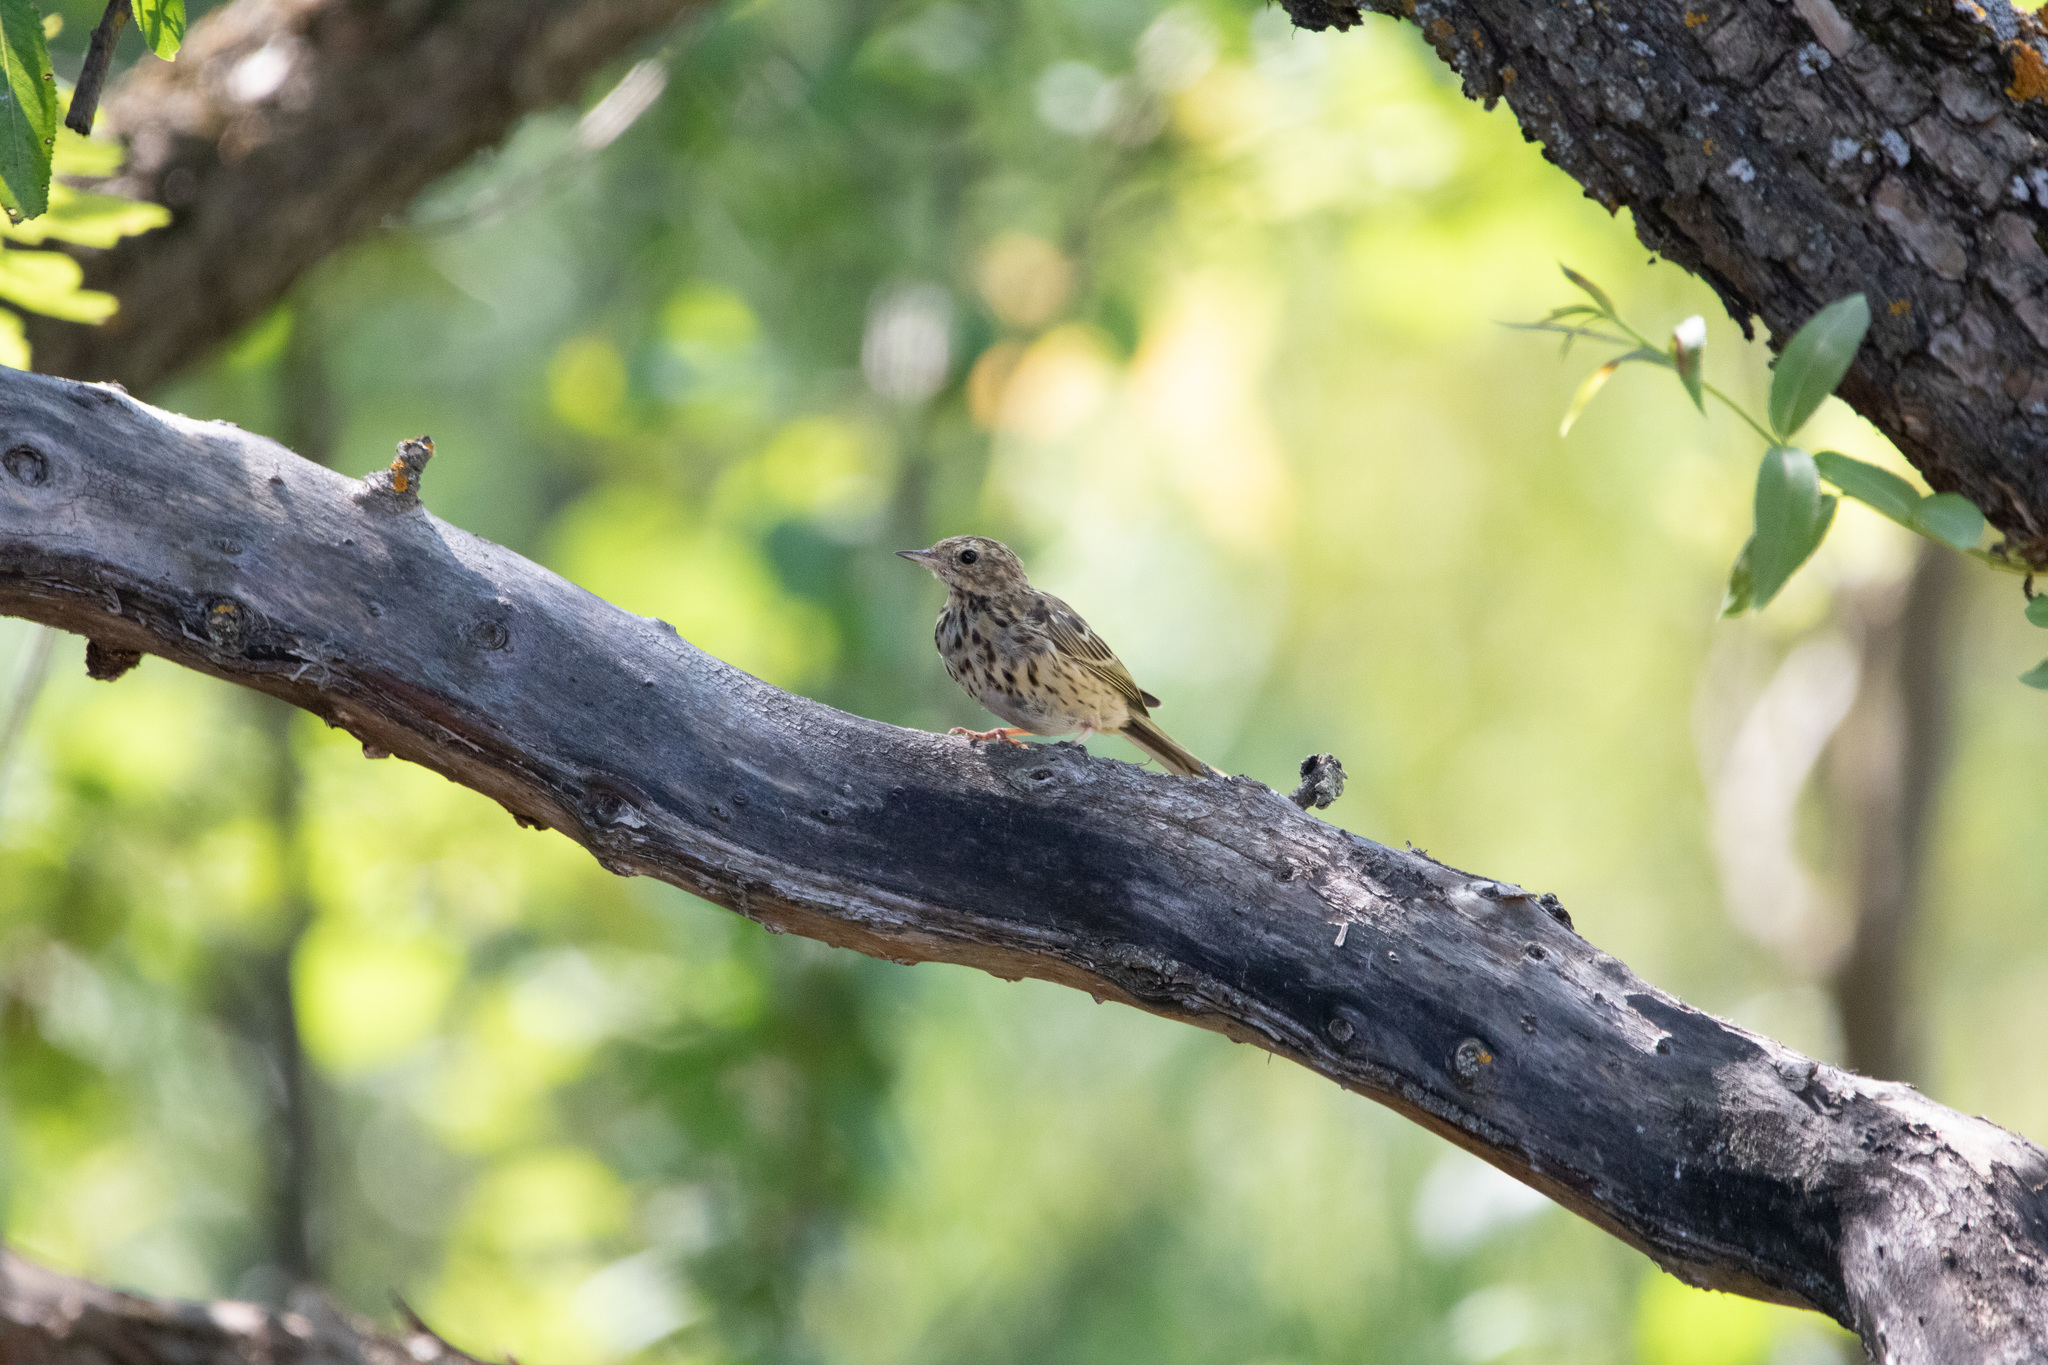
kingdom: Animalia
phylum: Chordata
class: Aves
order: Passeriformes
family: Motacillidae
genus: Anthus
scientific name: Anthus trivialis
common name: Tree pipit
